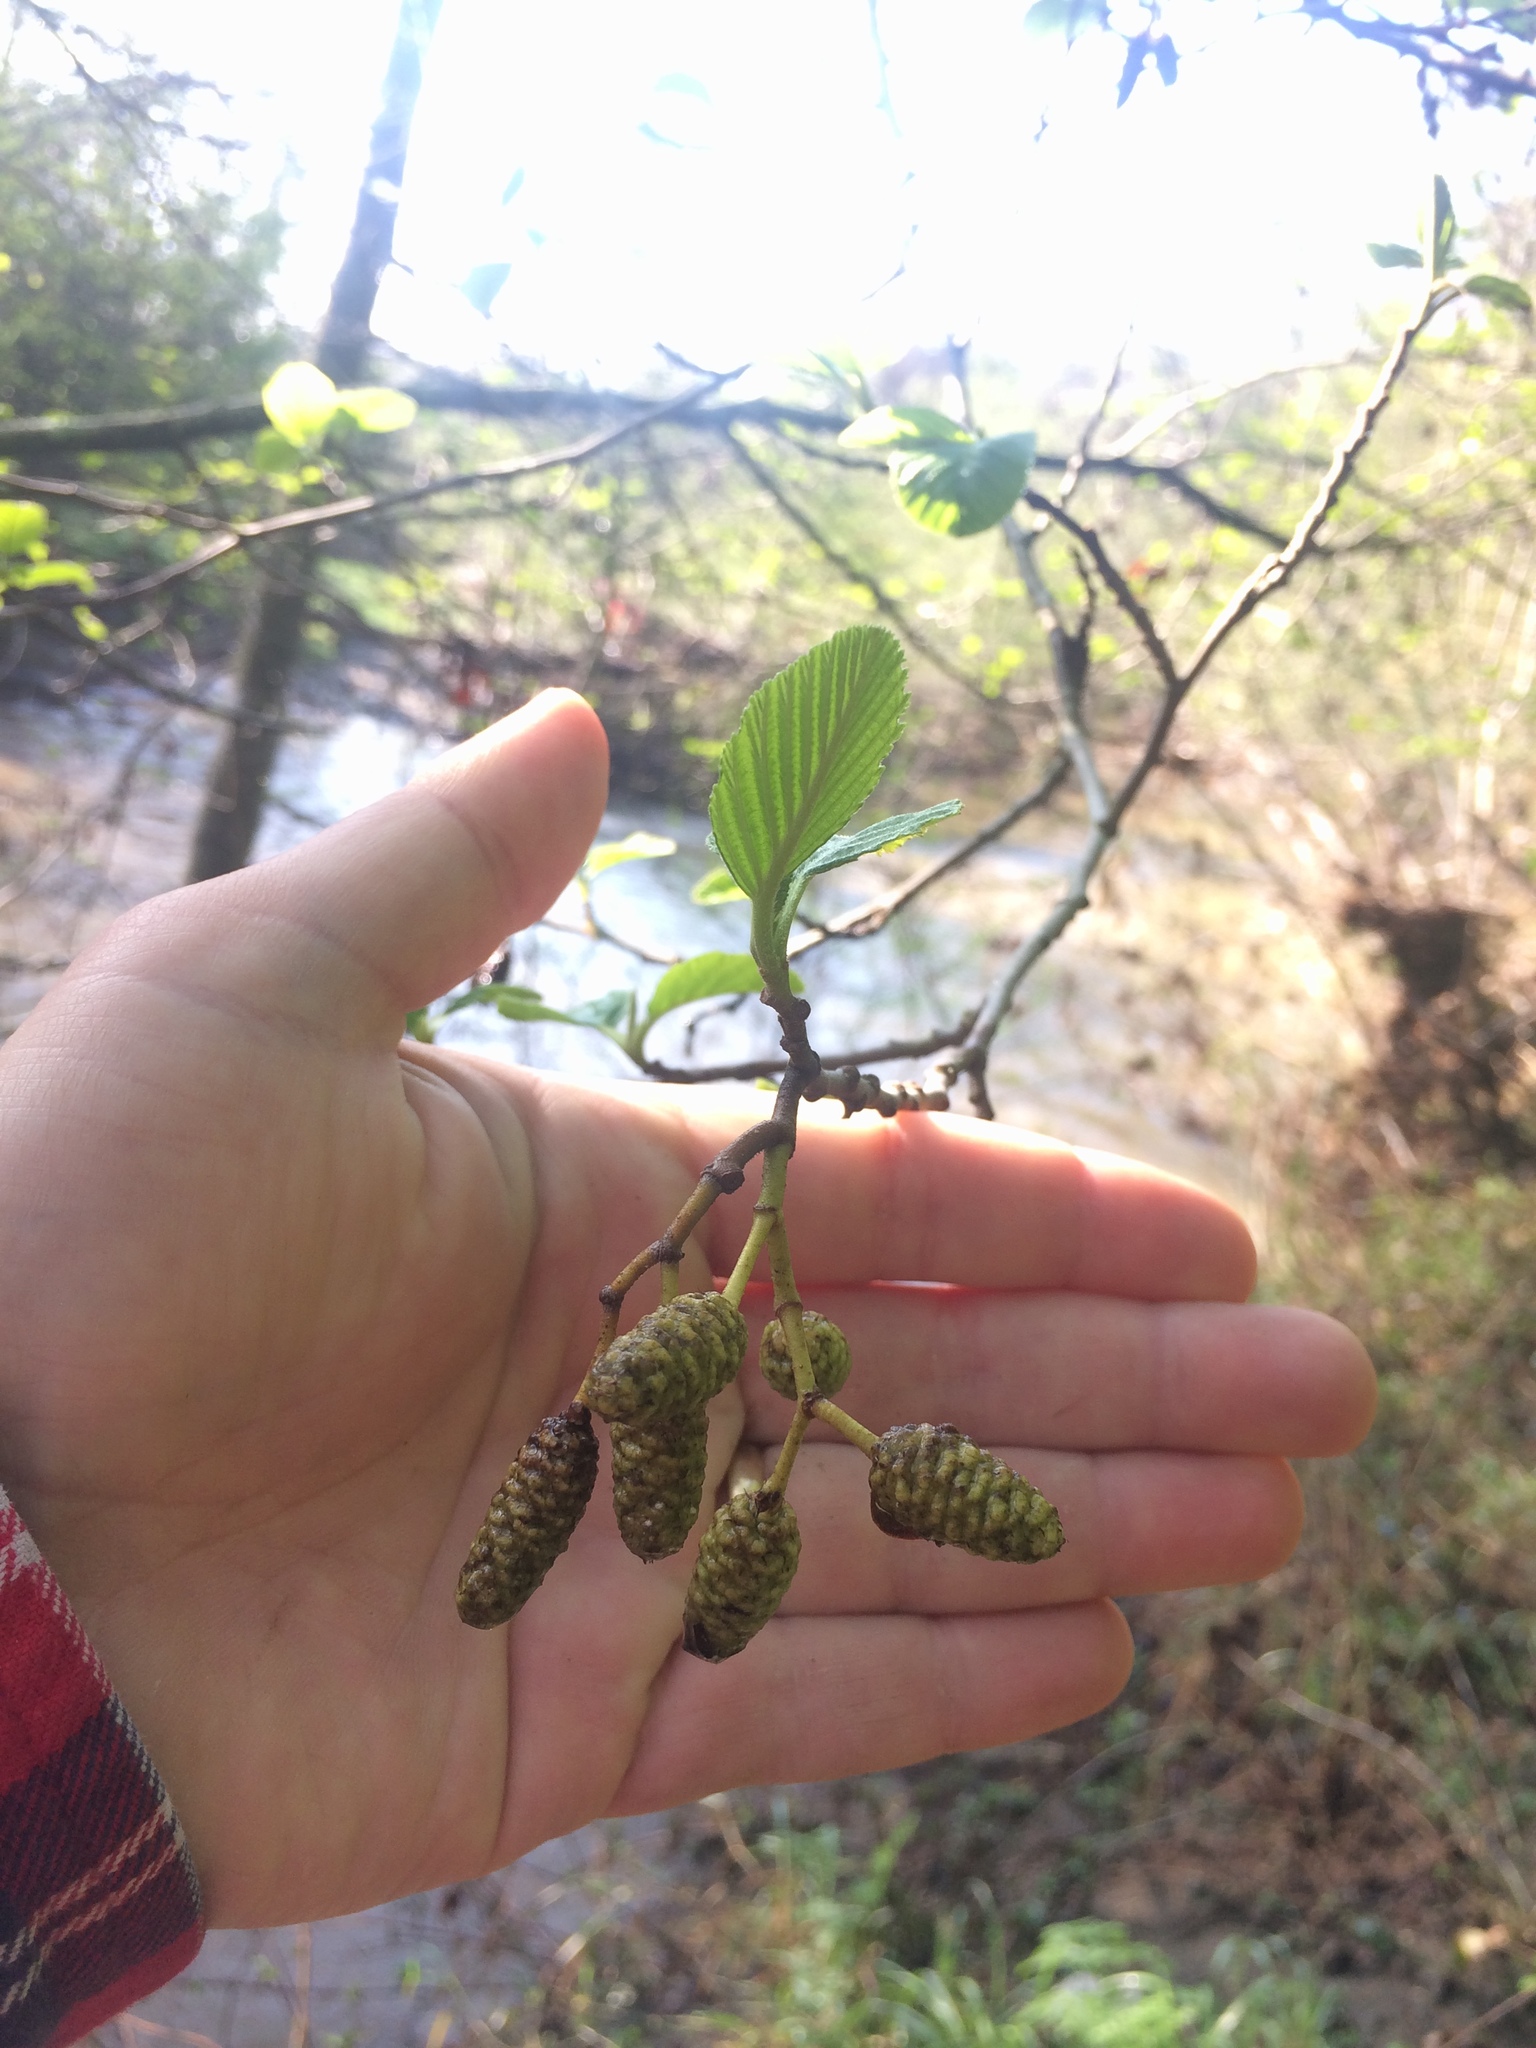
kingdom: Plantae
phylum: Tracheophyta
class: Magnoliopsida
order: Fagales
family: Betulaceae
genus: Alnus
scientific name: Alnus rhombifolia
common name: California alder
